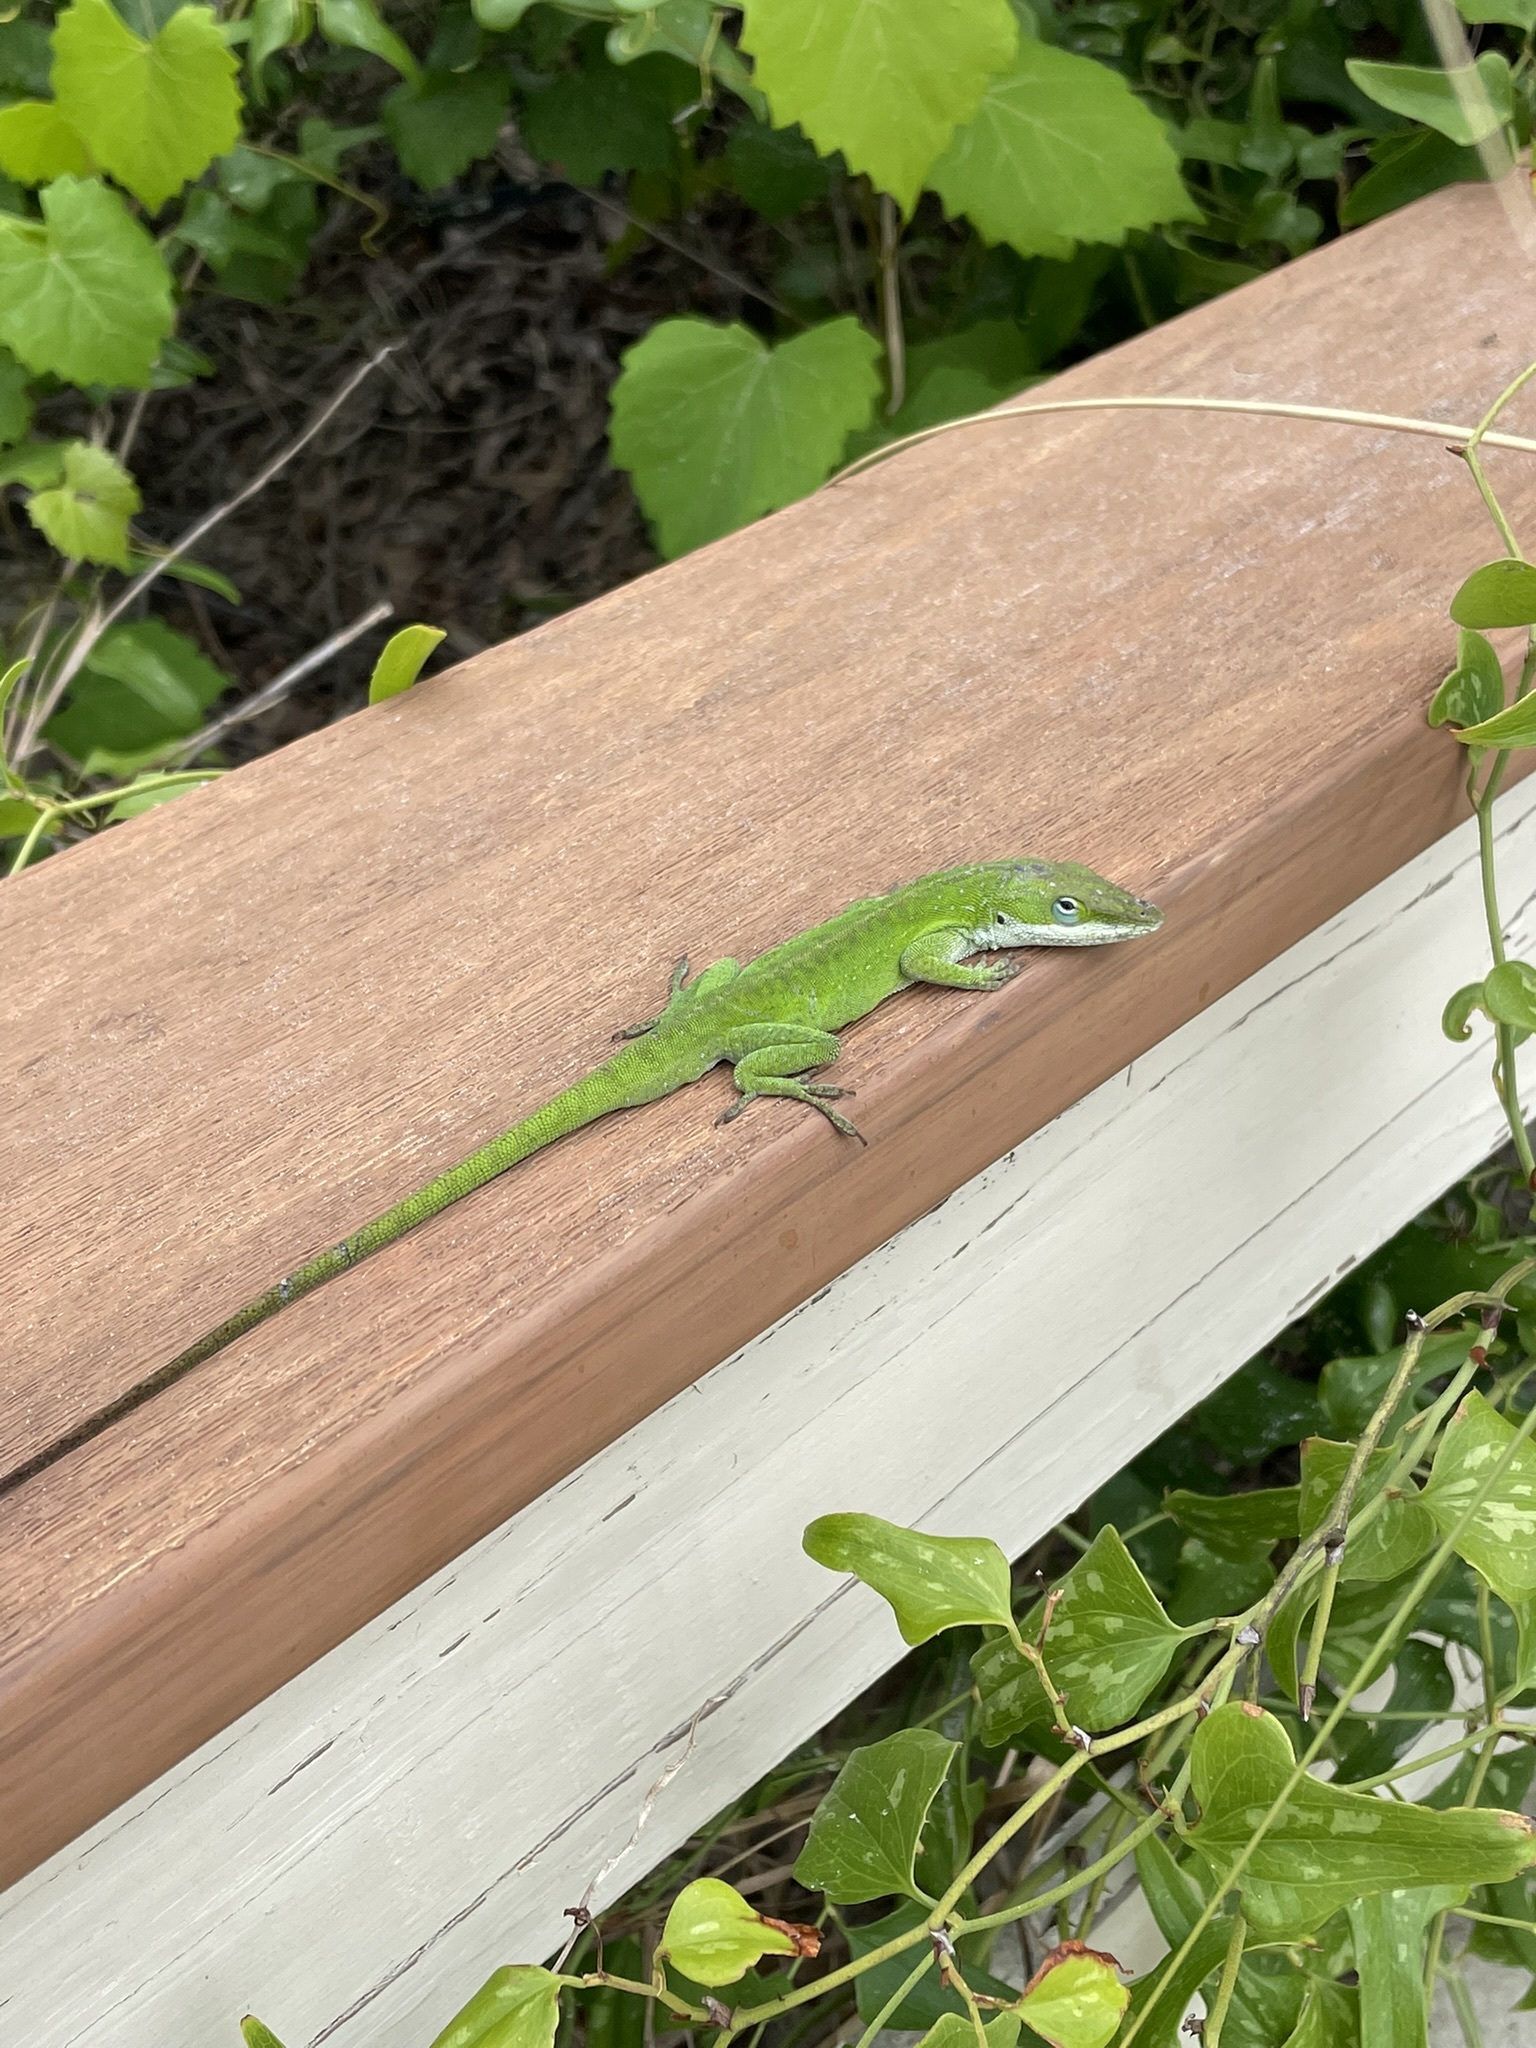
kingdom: Animalia
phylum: Chordata
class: Squamata
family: Dactyloidae
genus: Anolis
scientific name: Anolis carolinensis
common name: Green anole
